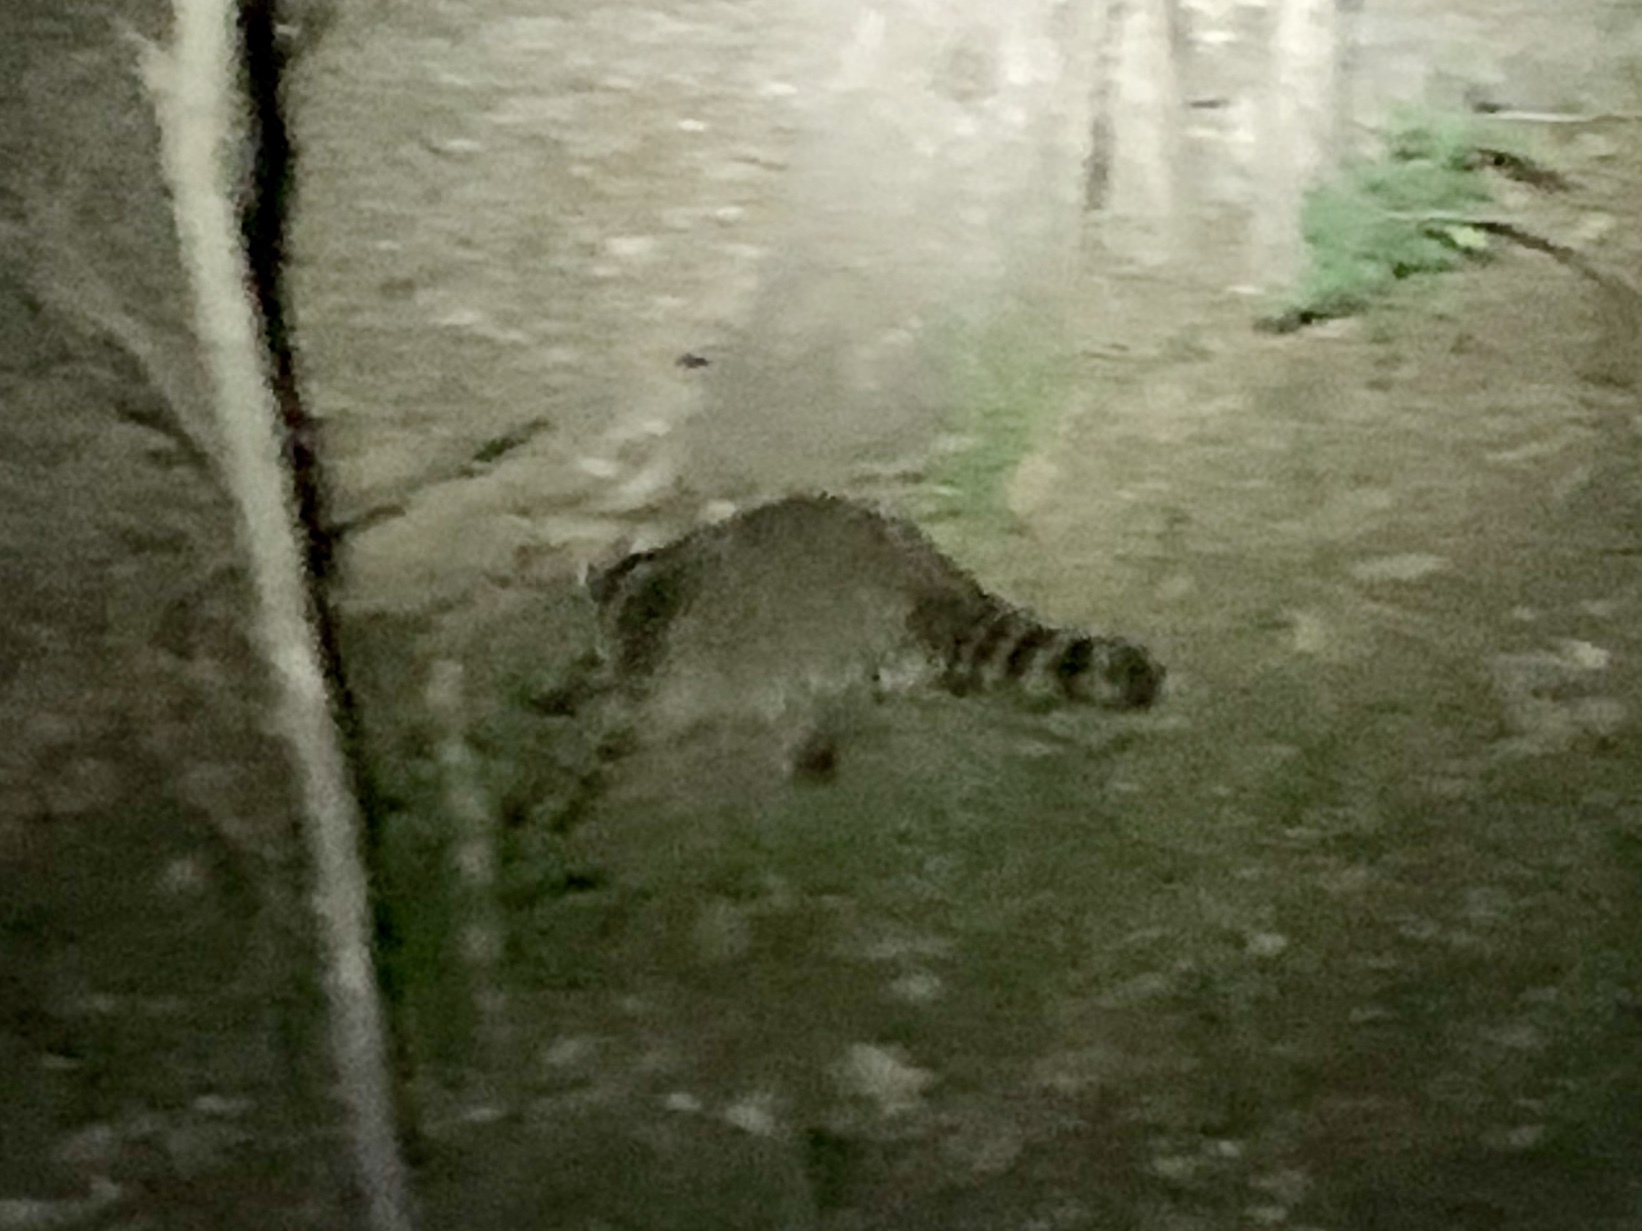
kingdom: Animalia
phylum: Chordata
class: Mammalia
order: Carnivora
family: Procyonidae
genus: Procyon
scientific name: Procyon lotor
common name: Raccoon
